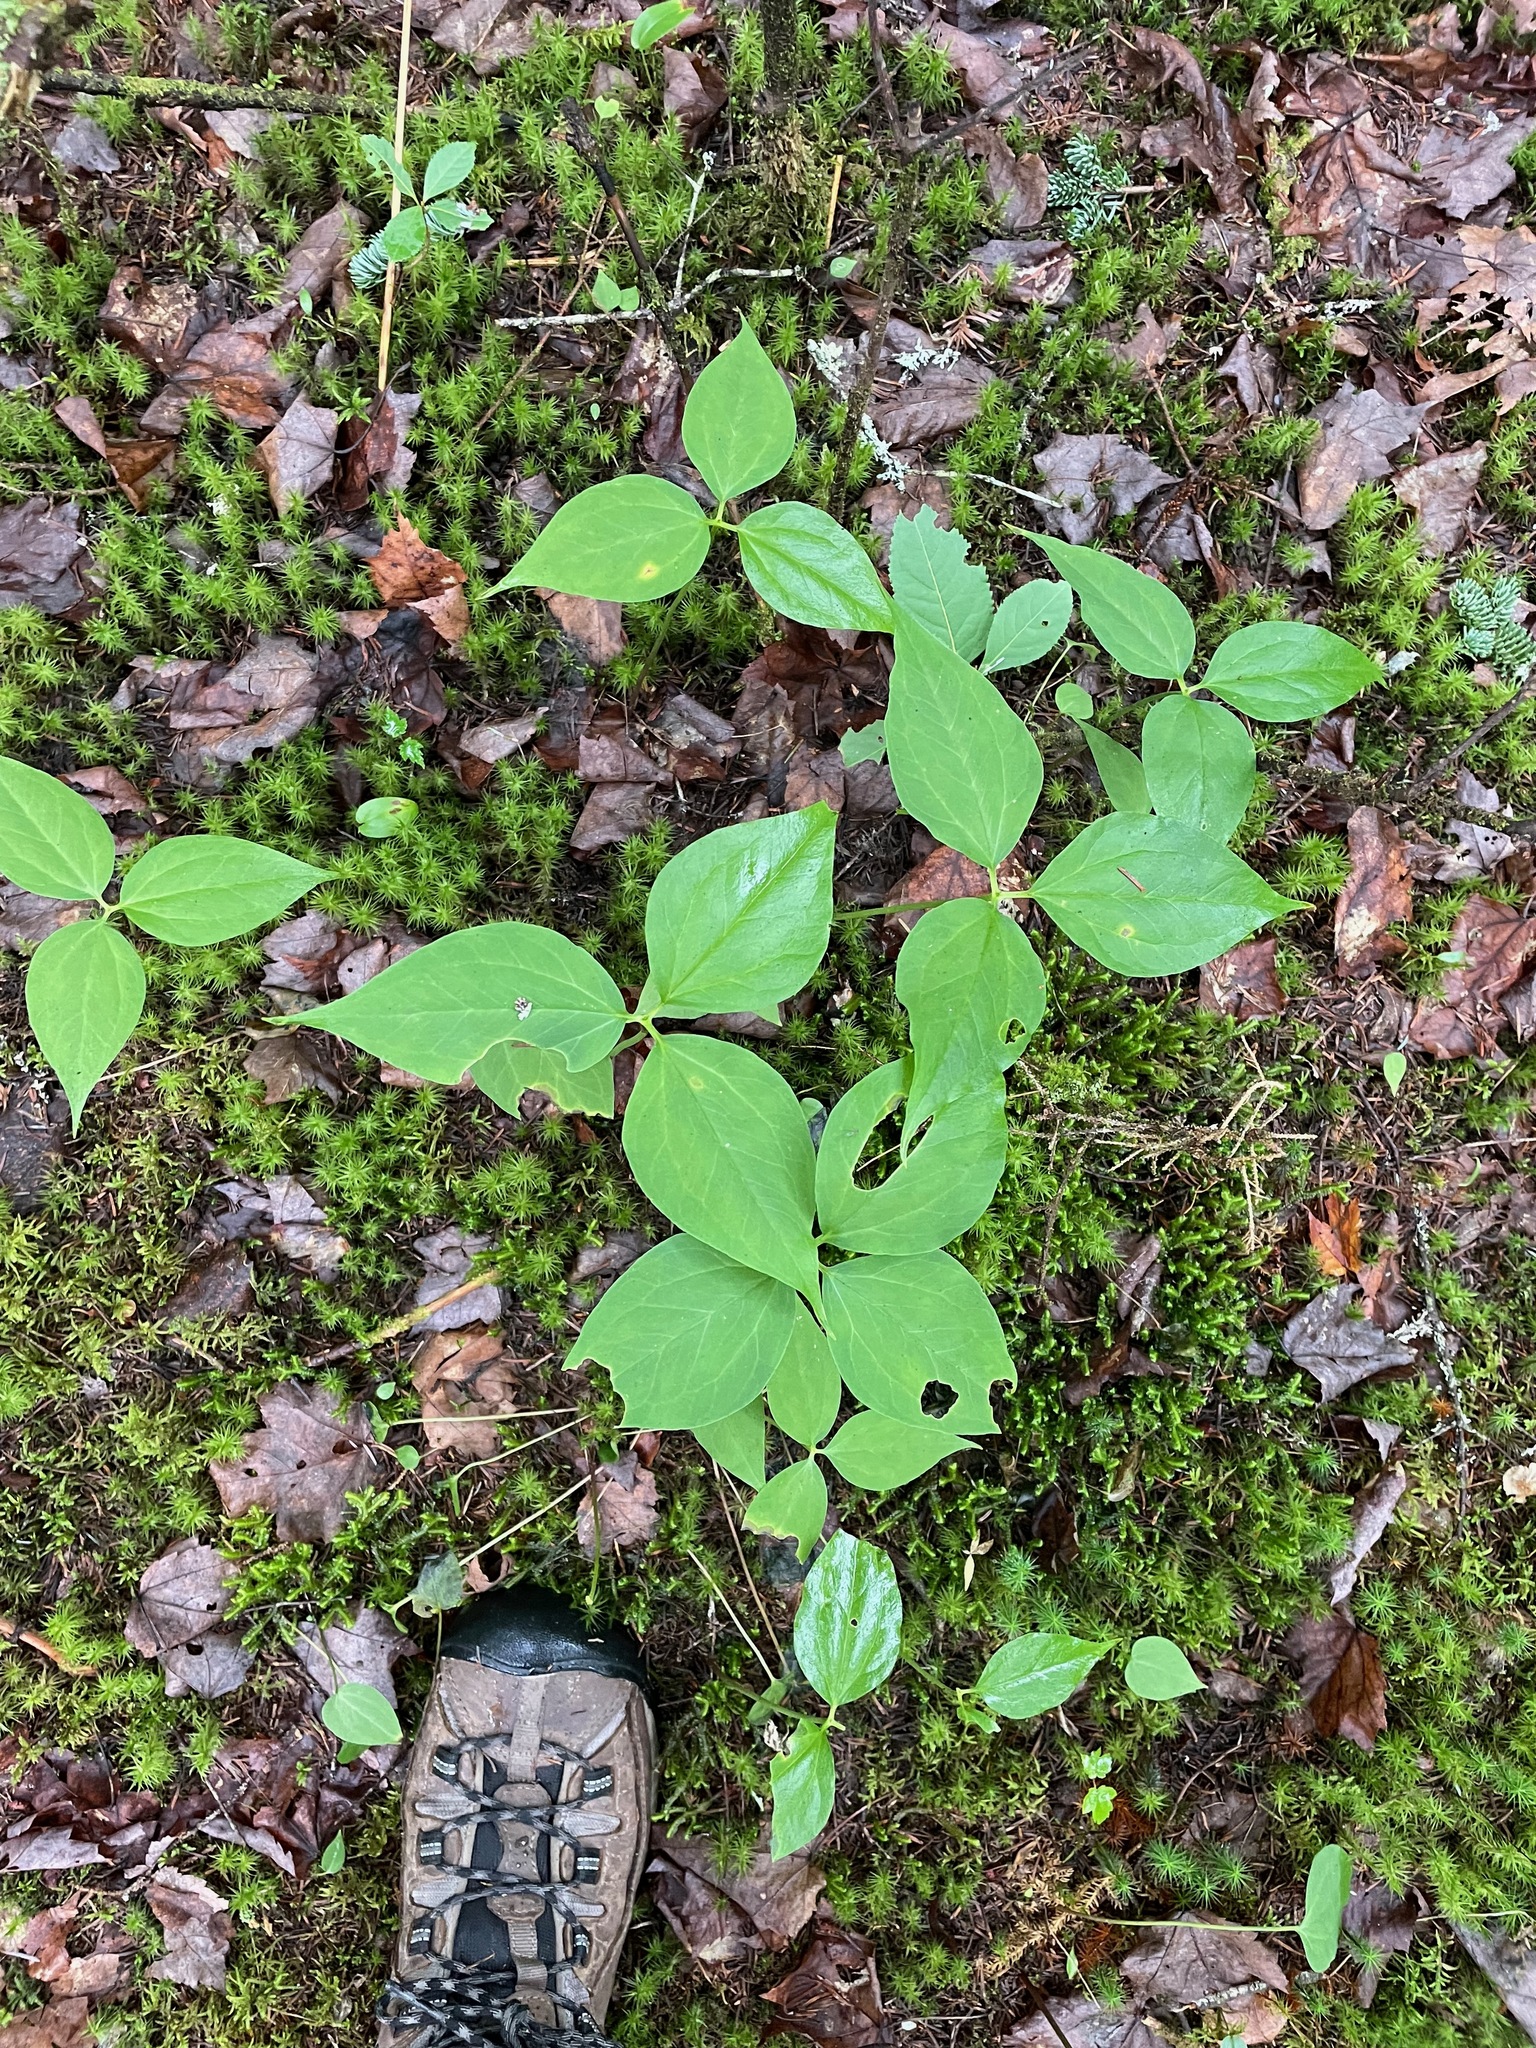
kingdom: Plantae
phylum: Tracheophyta
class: Liliopsida
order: Liliales
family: Melanthiaceae
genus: Trillium
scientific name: Trillium undulatum
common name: Paint trillium
